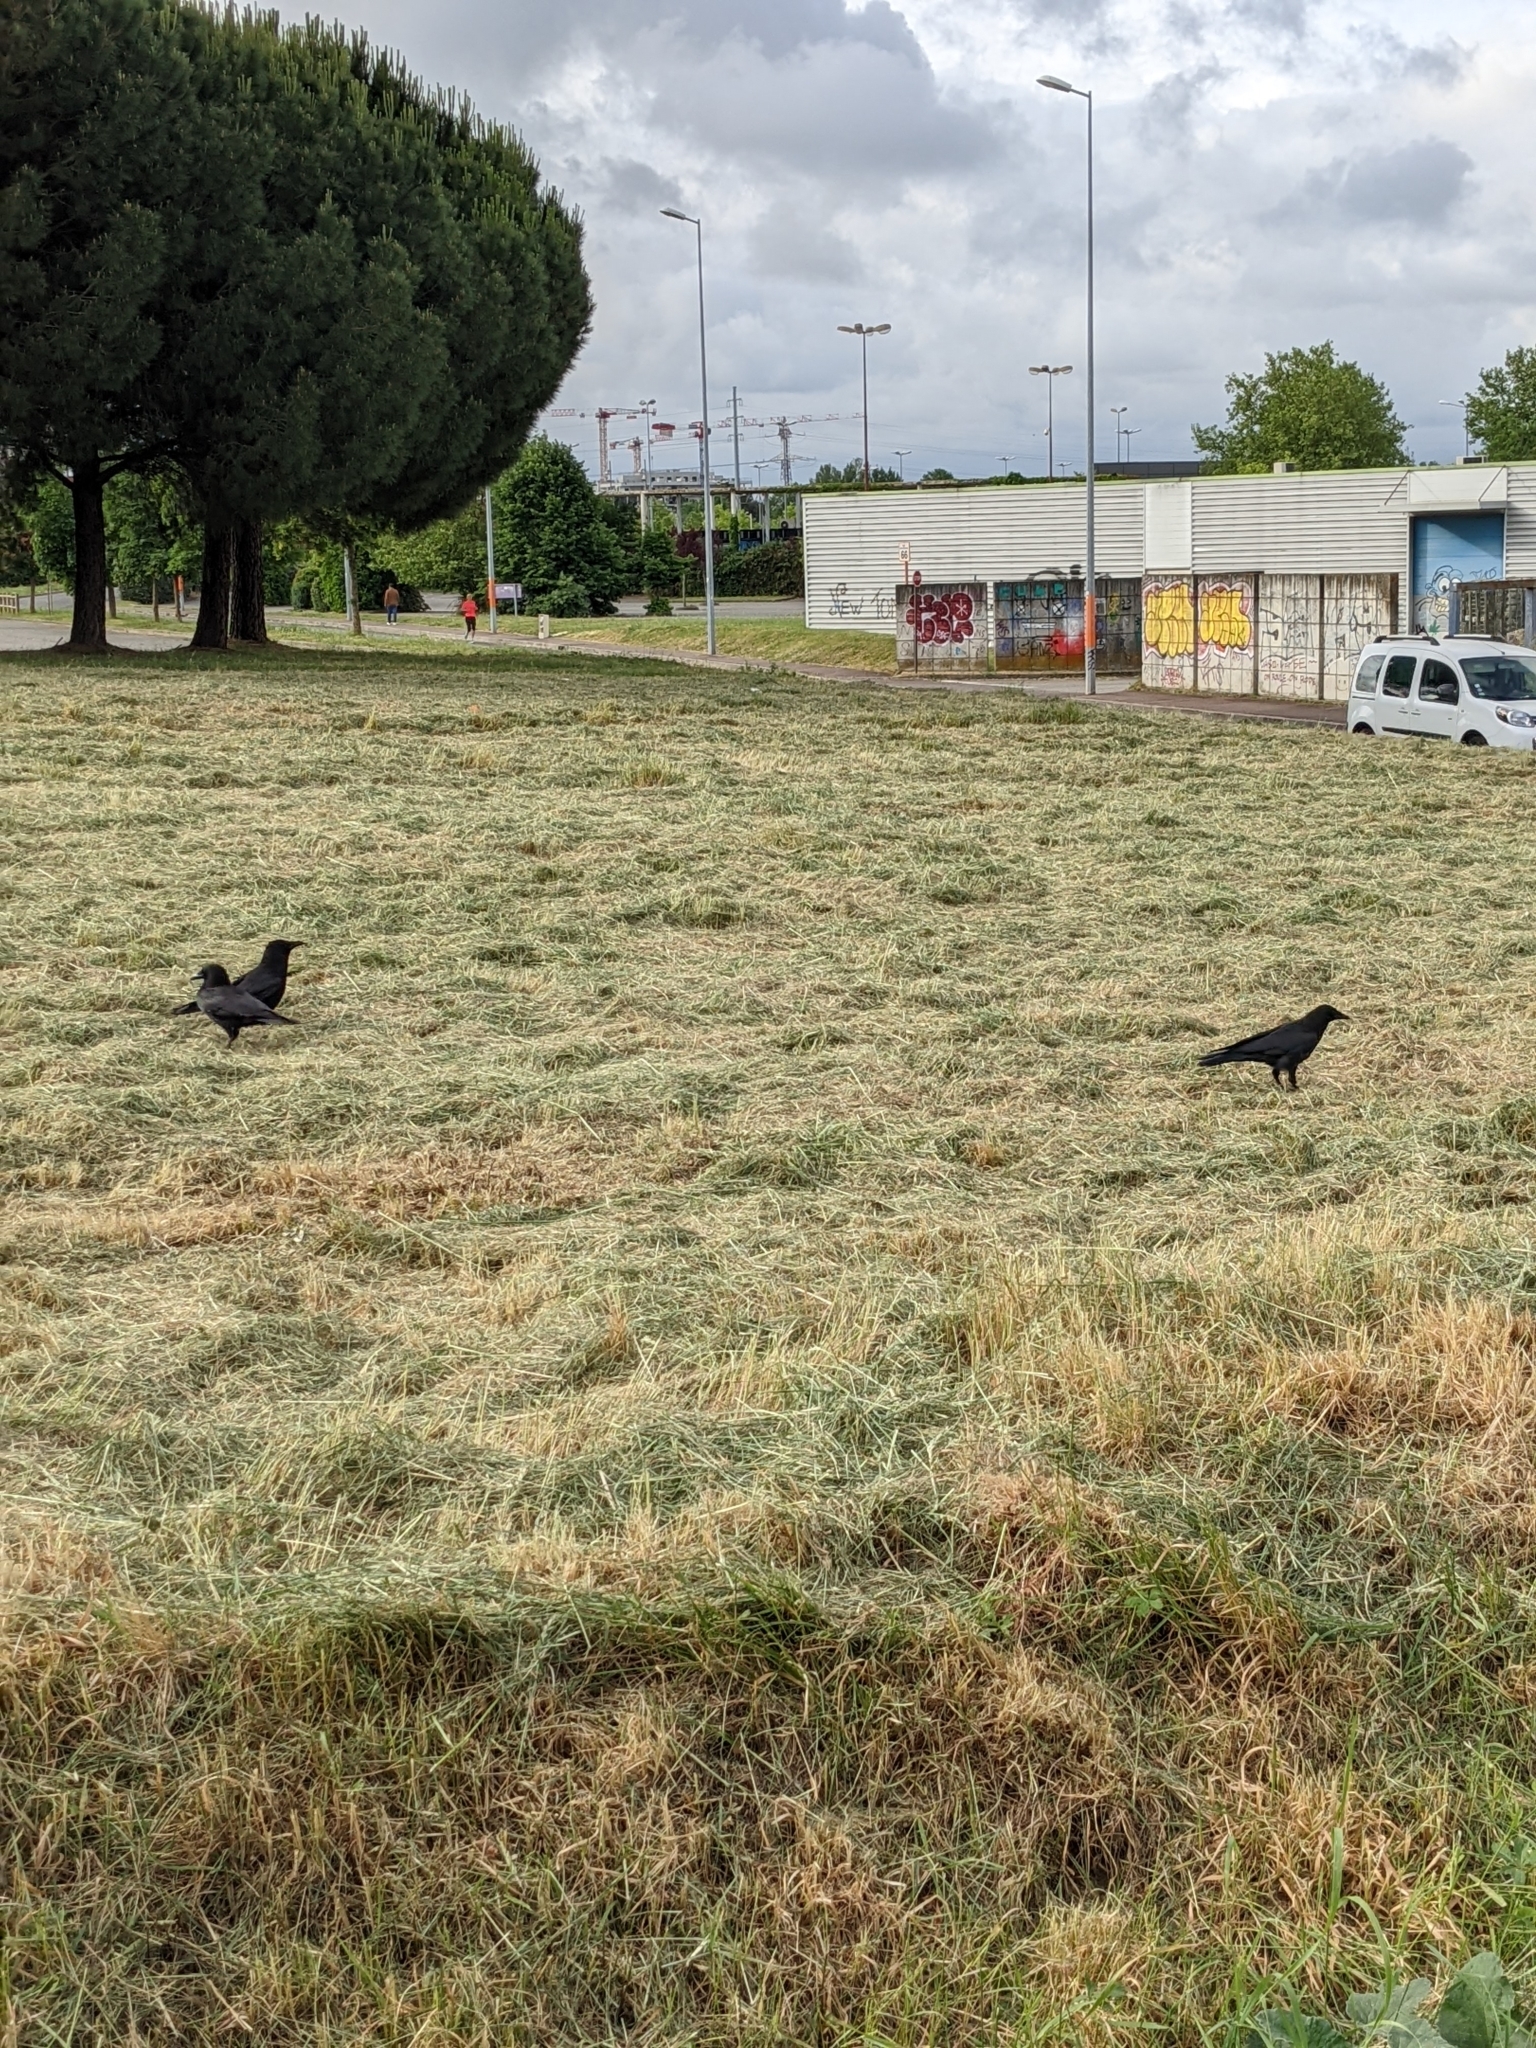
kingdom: Animalia
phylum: Chordata
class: Aves
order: Passeriformes
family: Corvidae
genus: Corvus
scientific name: Corvus corone
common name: Carrion crow
